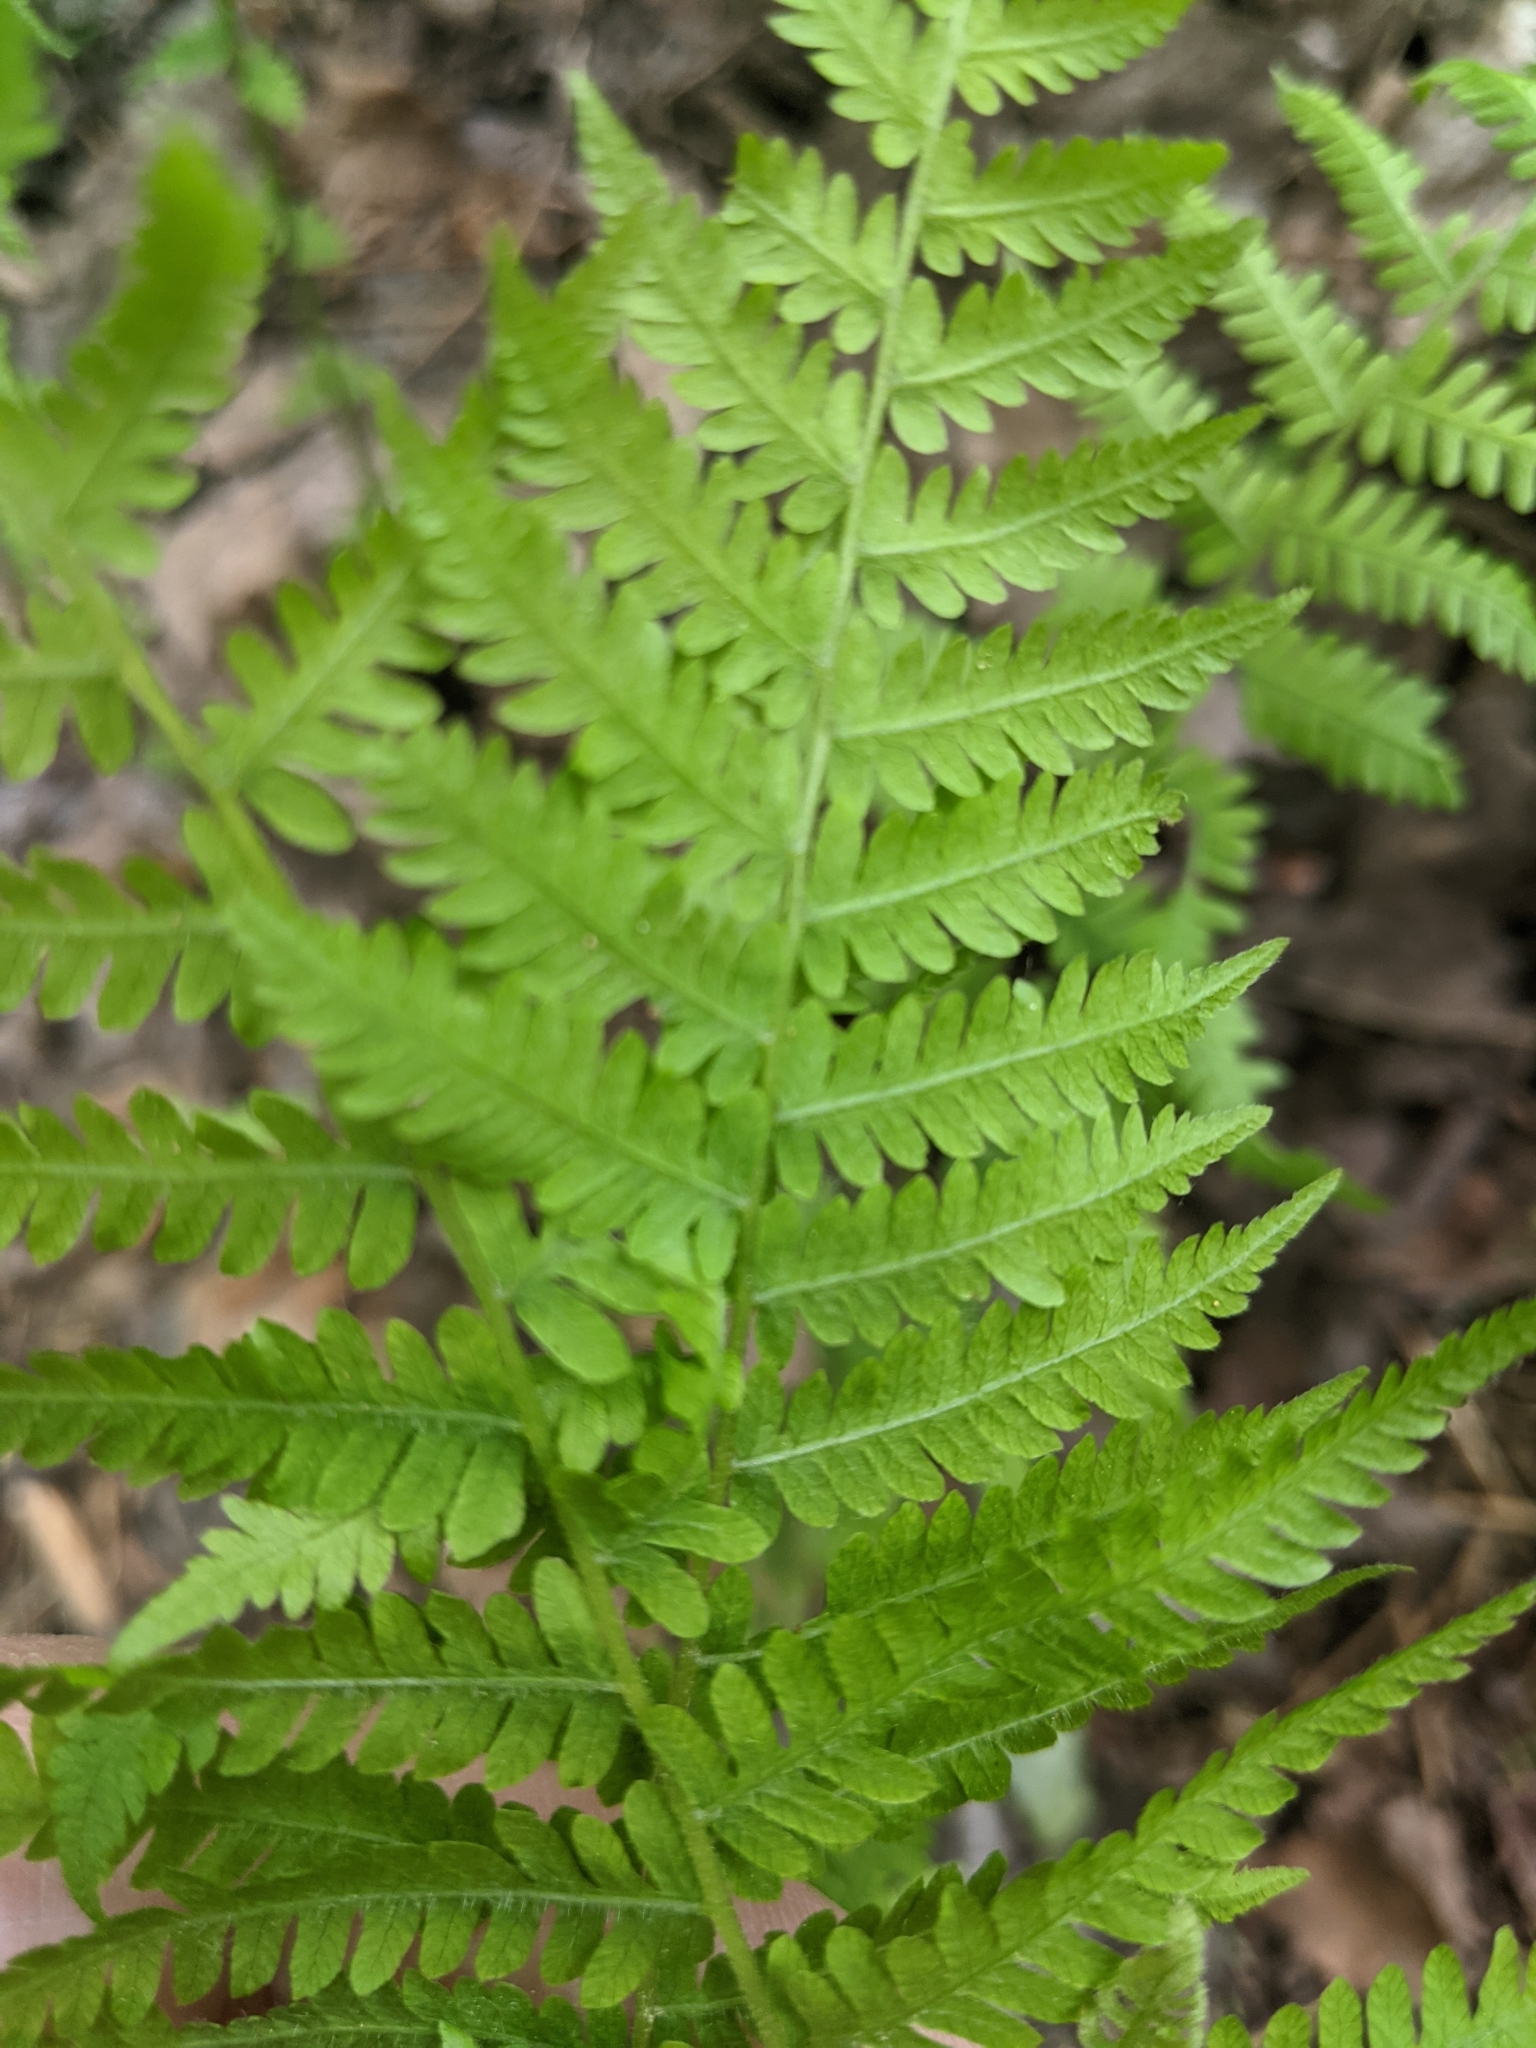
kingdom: Plantae
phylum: Tracheophyta
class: Polypodiopsida
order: Polypodiales
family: Thelypteridaceae
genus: Amauropelta
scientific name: Amauropelta noveboracensis
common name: New york fern
